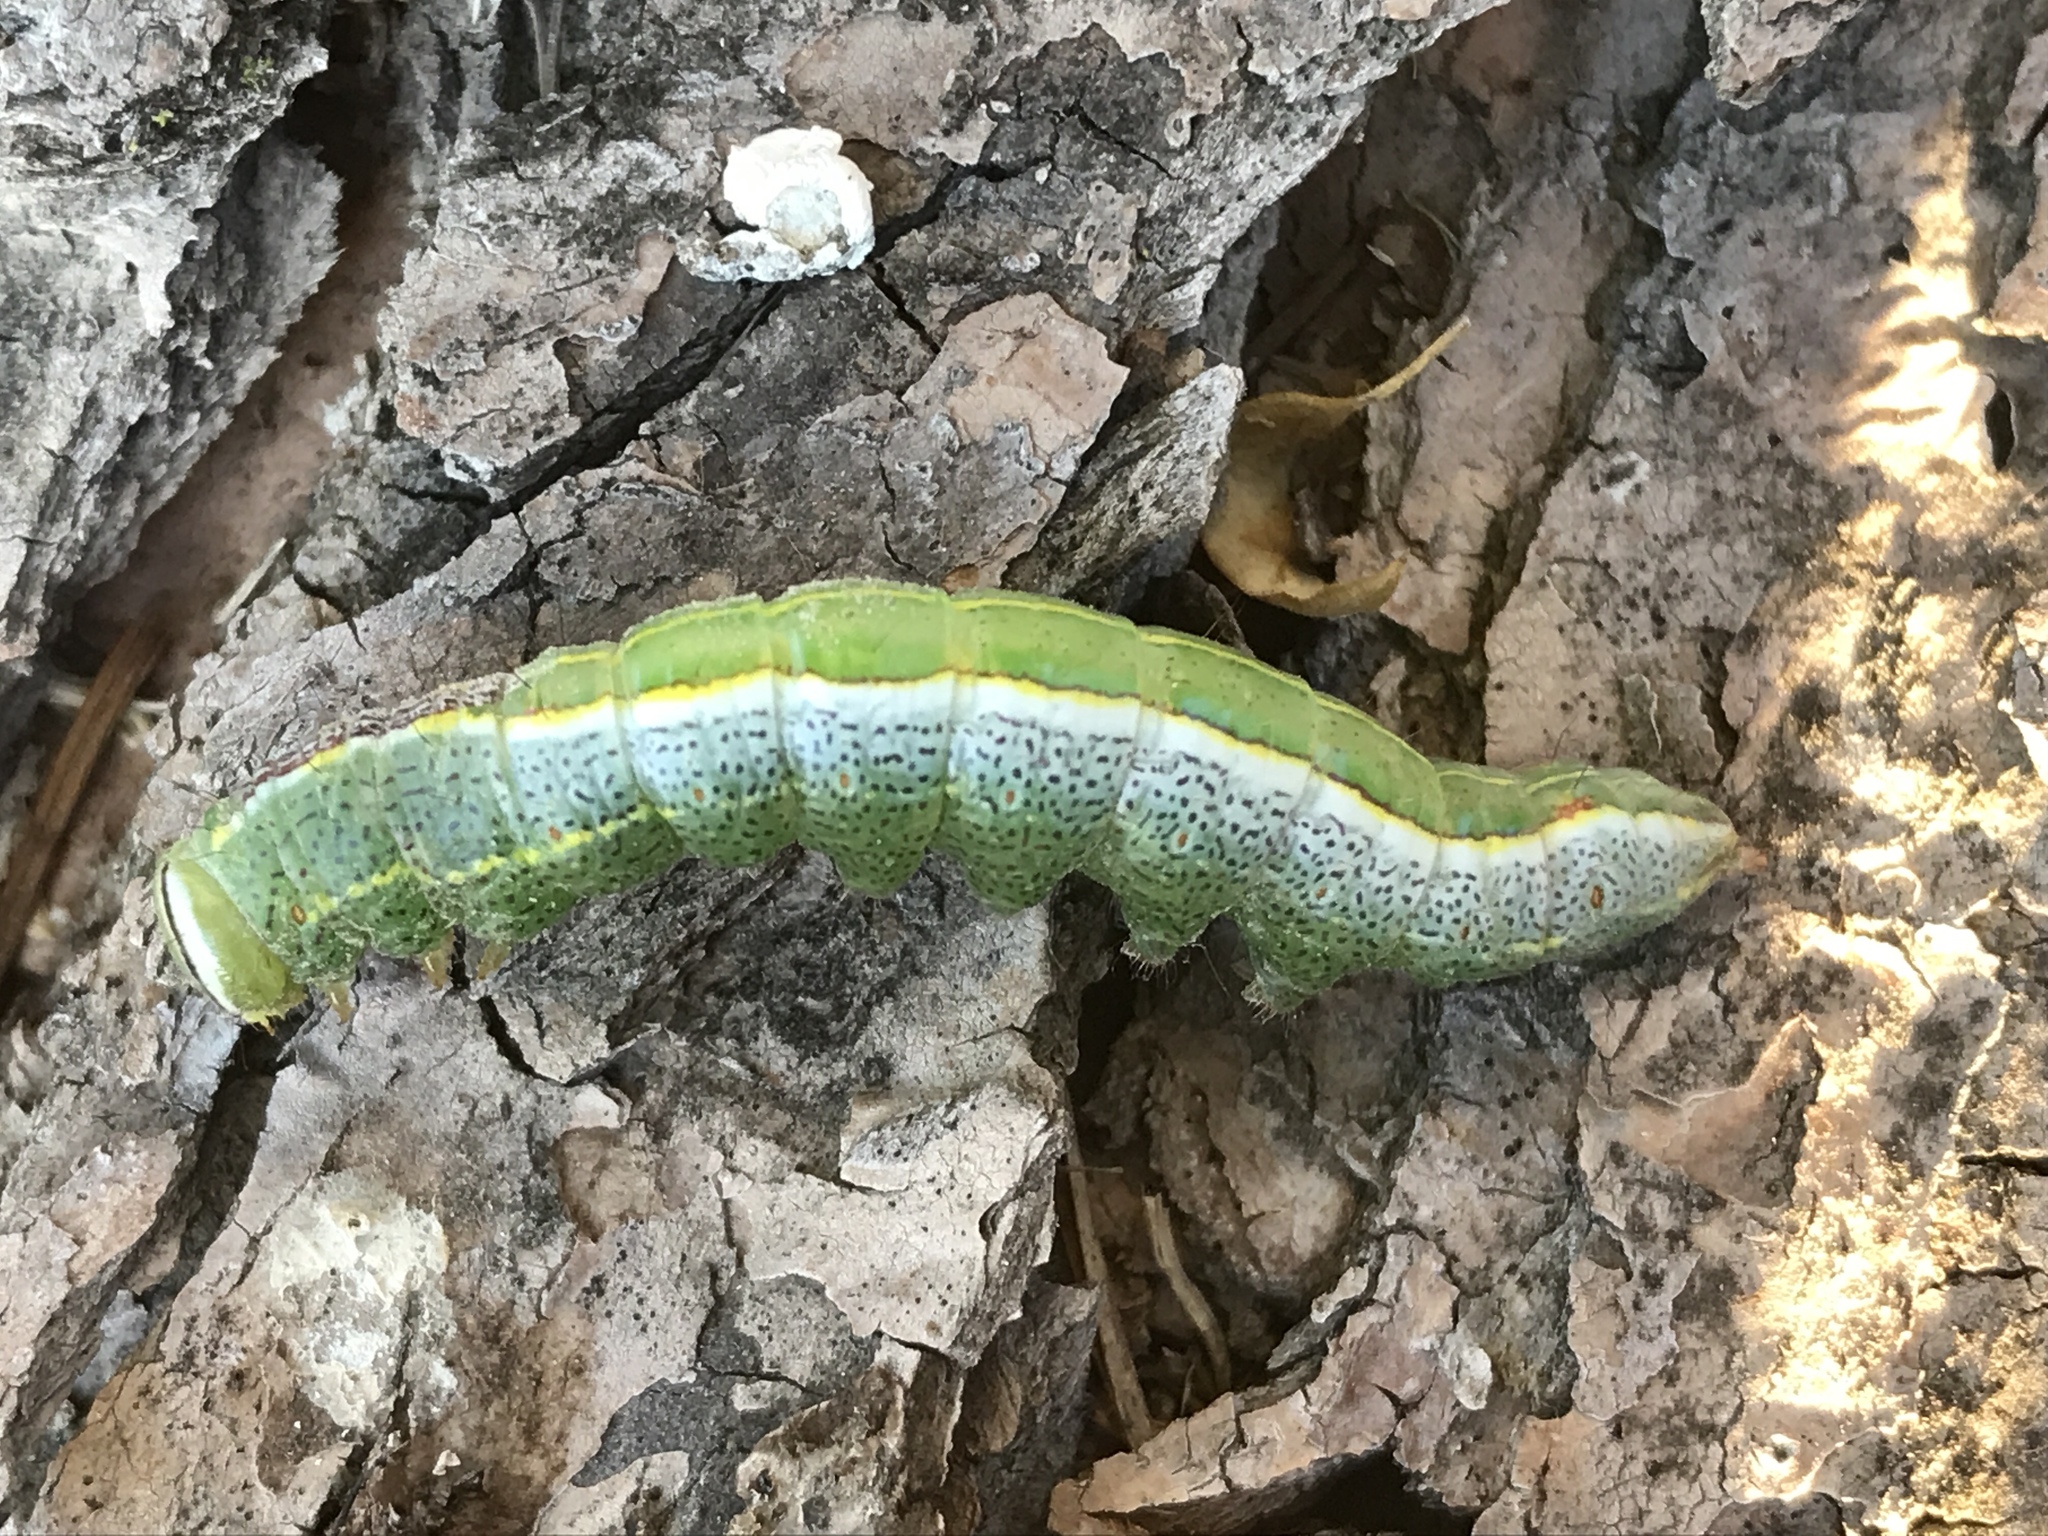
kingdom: Animalia
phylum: Arthropoda
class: Insecta
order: Lepidoptera
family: Notodontidae
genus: Lochmaeus
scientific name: Lochmaeus manteo
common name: Variable oakleaf caterpillar moth
